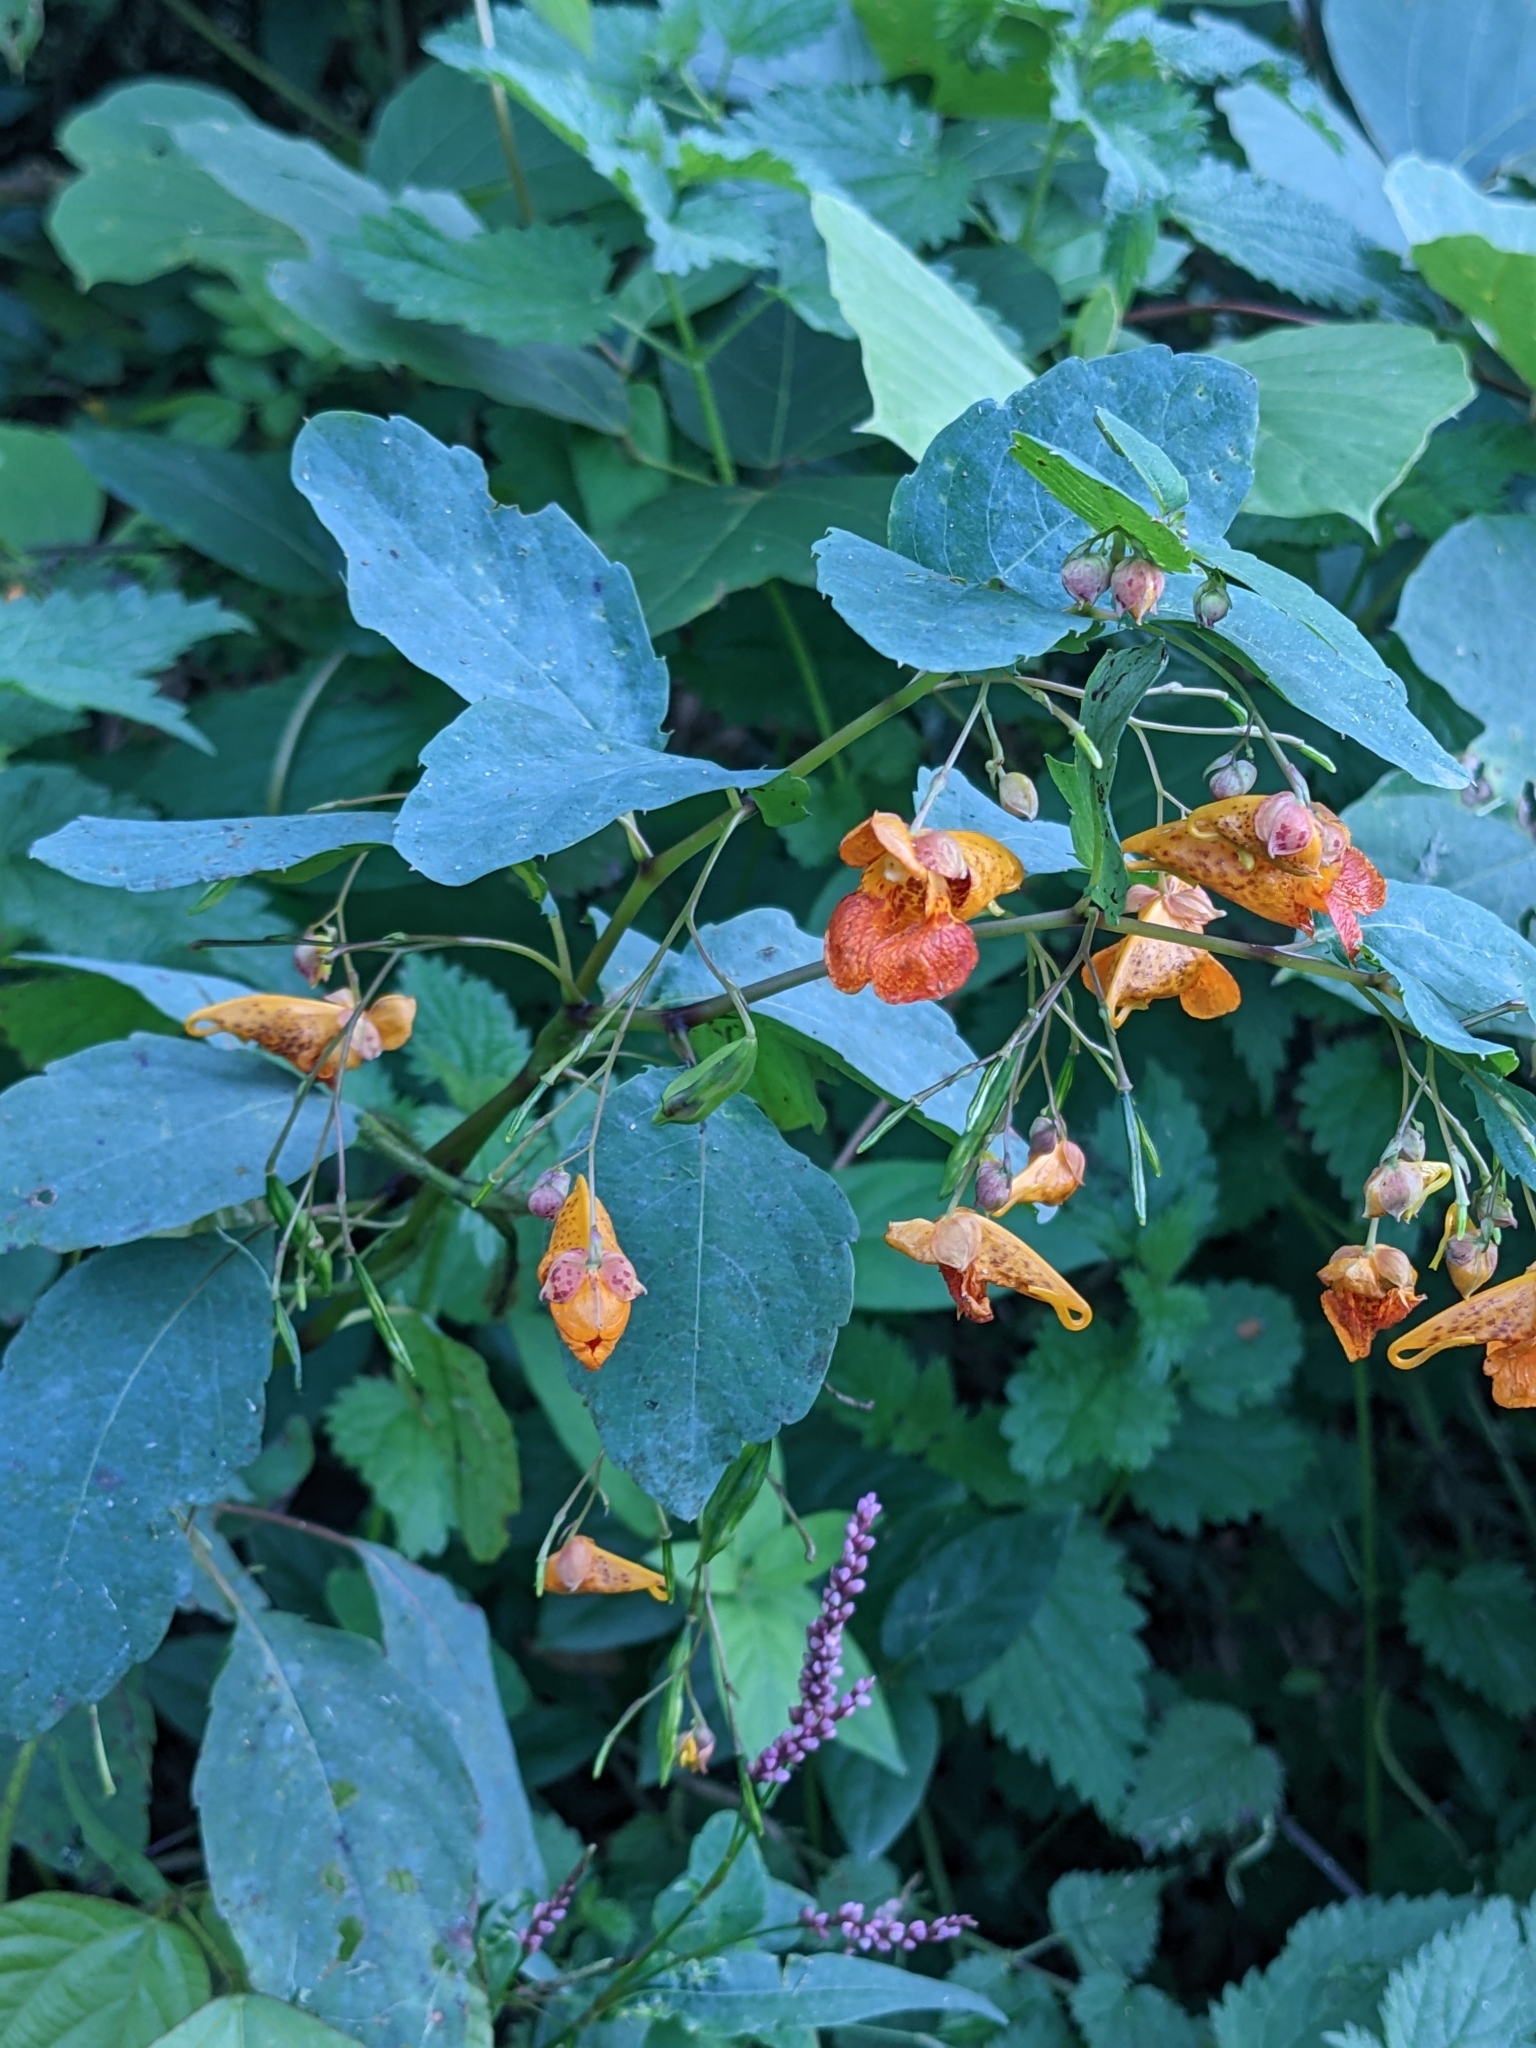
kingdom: Plantae
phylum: Tracheophyta
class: Magnoliopsida
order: Ericales
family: Balsaminaceae
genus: Impatiens
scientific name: Impatiens capensis
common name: Orange balsam
